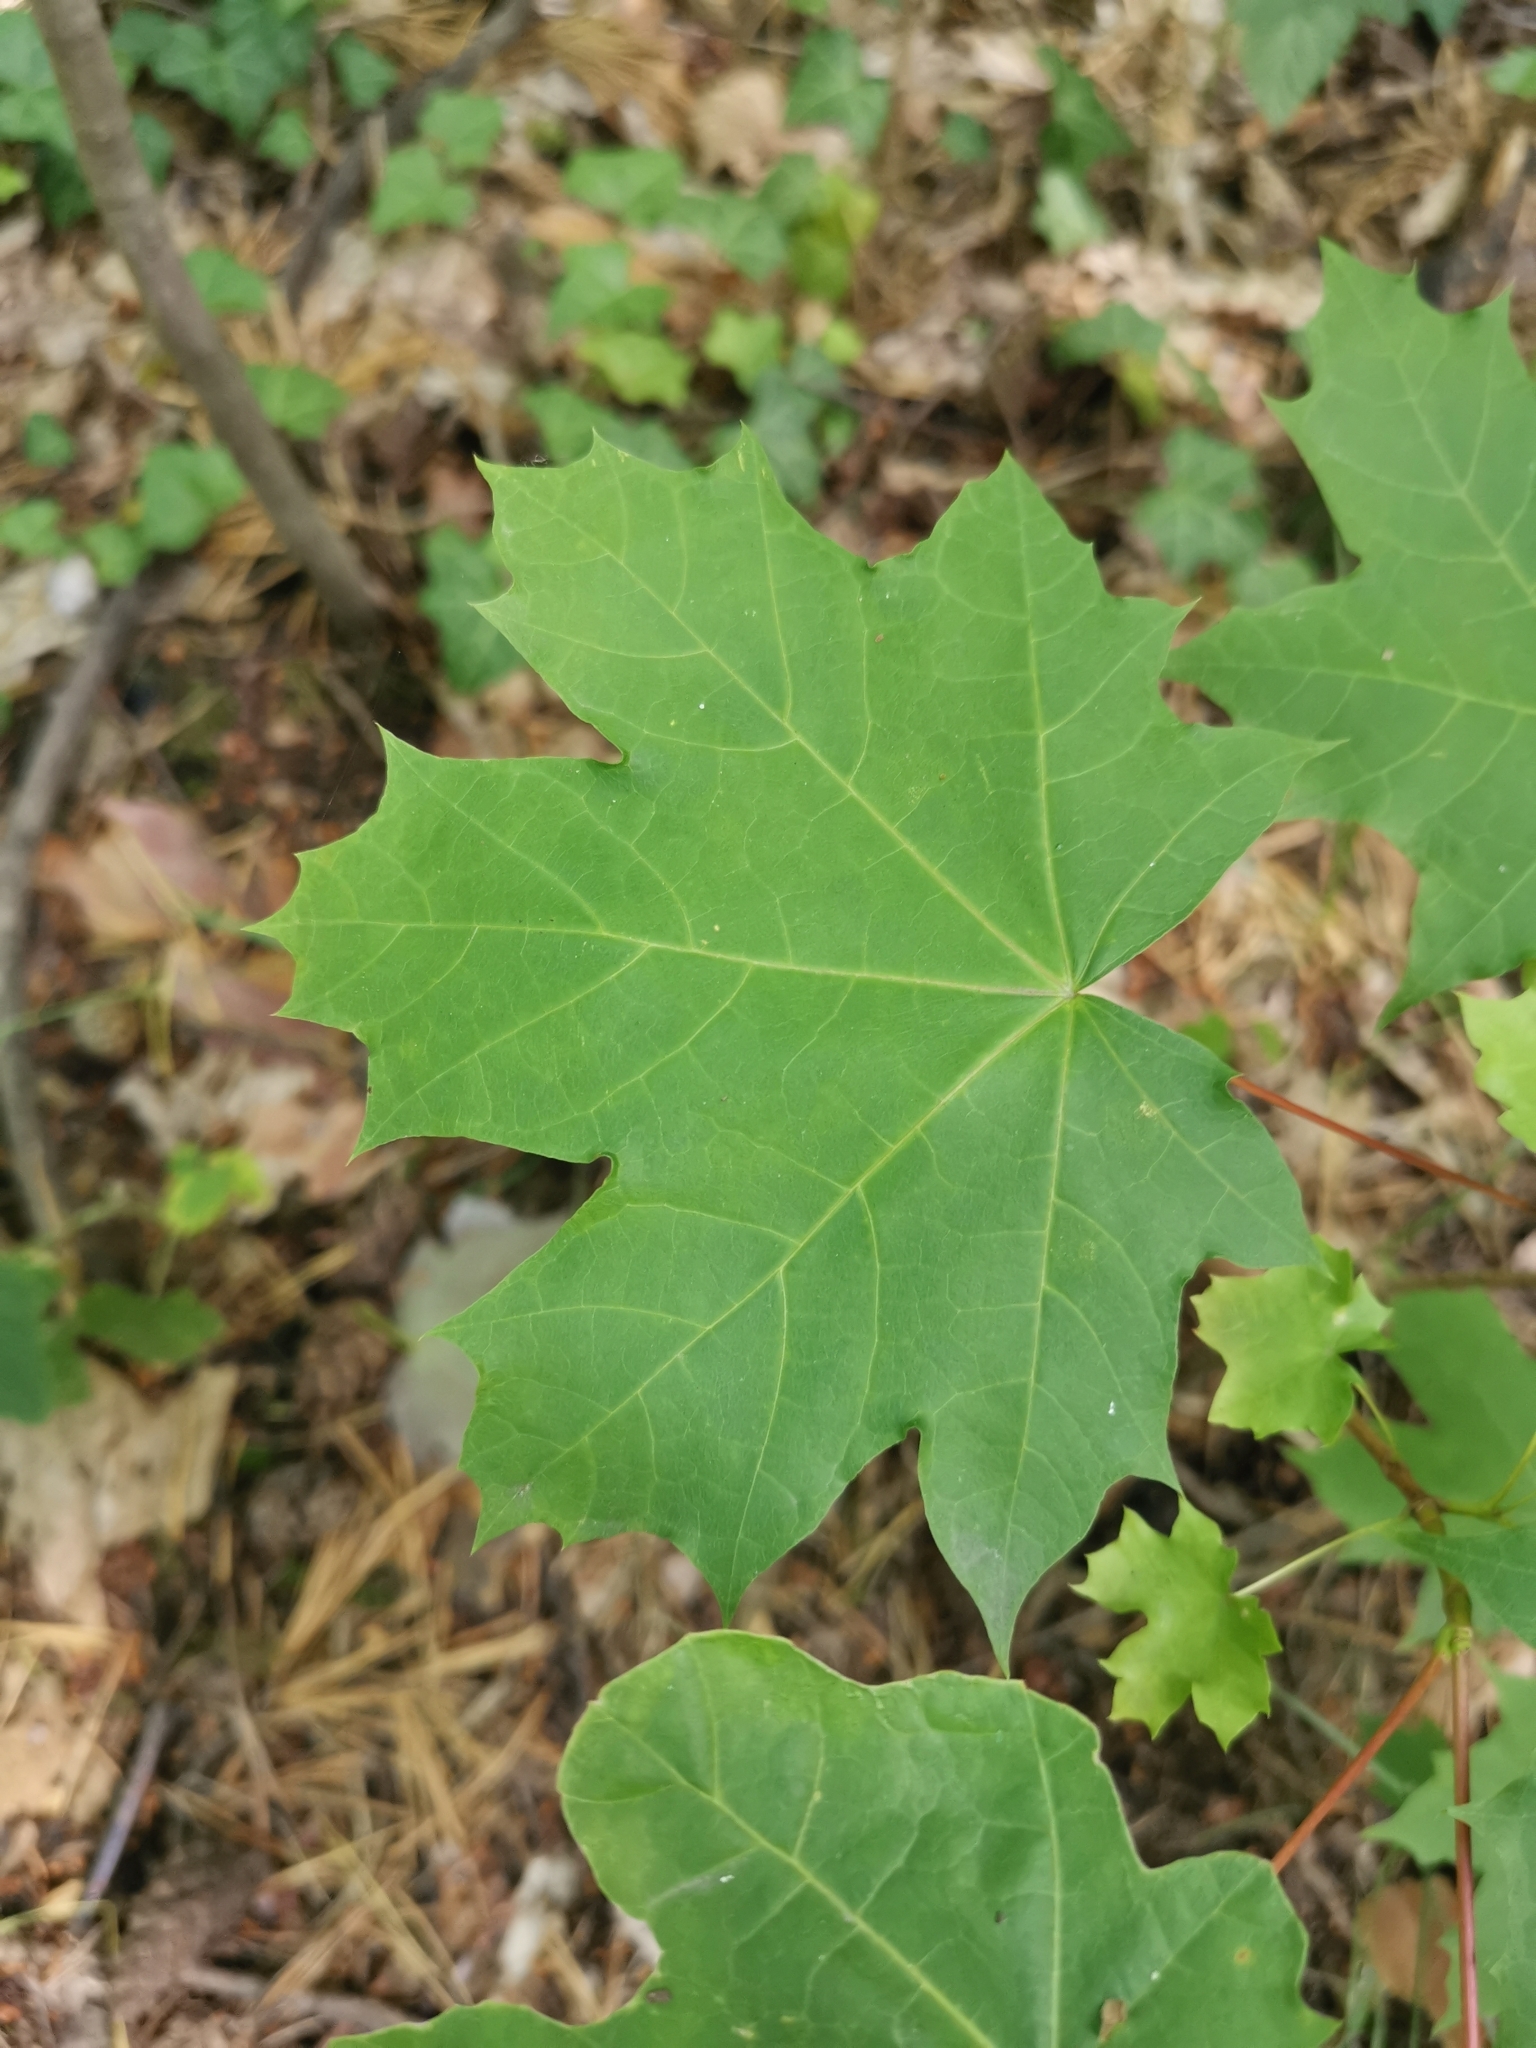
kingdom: Plantae
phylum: Tracheophyta
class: Magnoliopsida
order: Sapindales
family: Sapindaceae
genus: Acer
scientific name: Acer platanoides
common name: Norway maple
